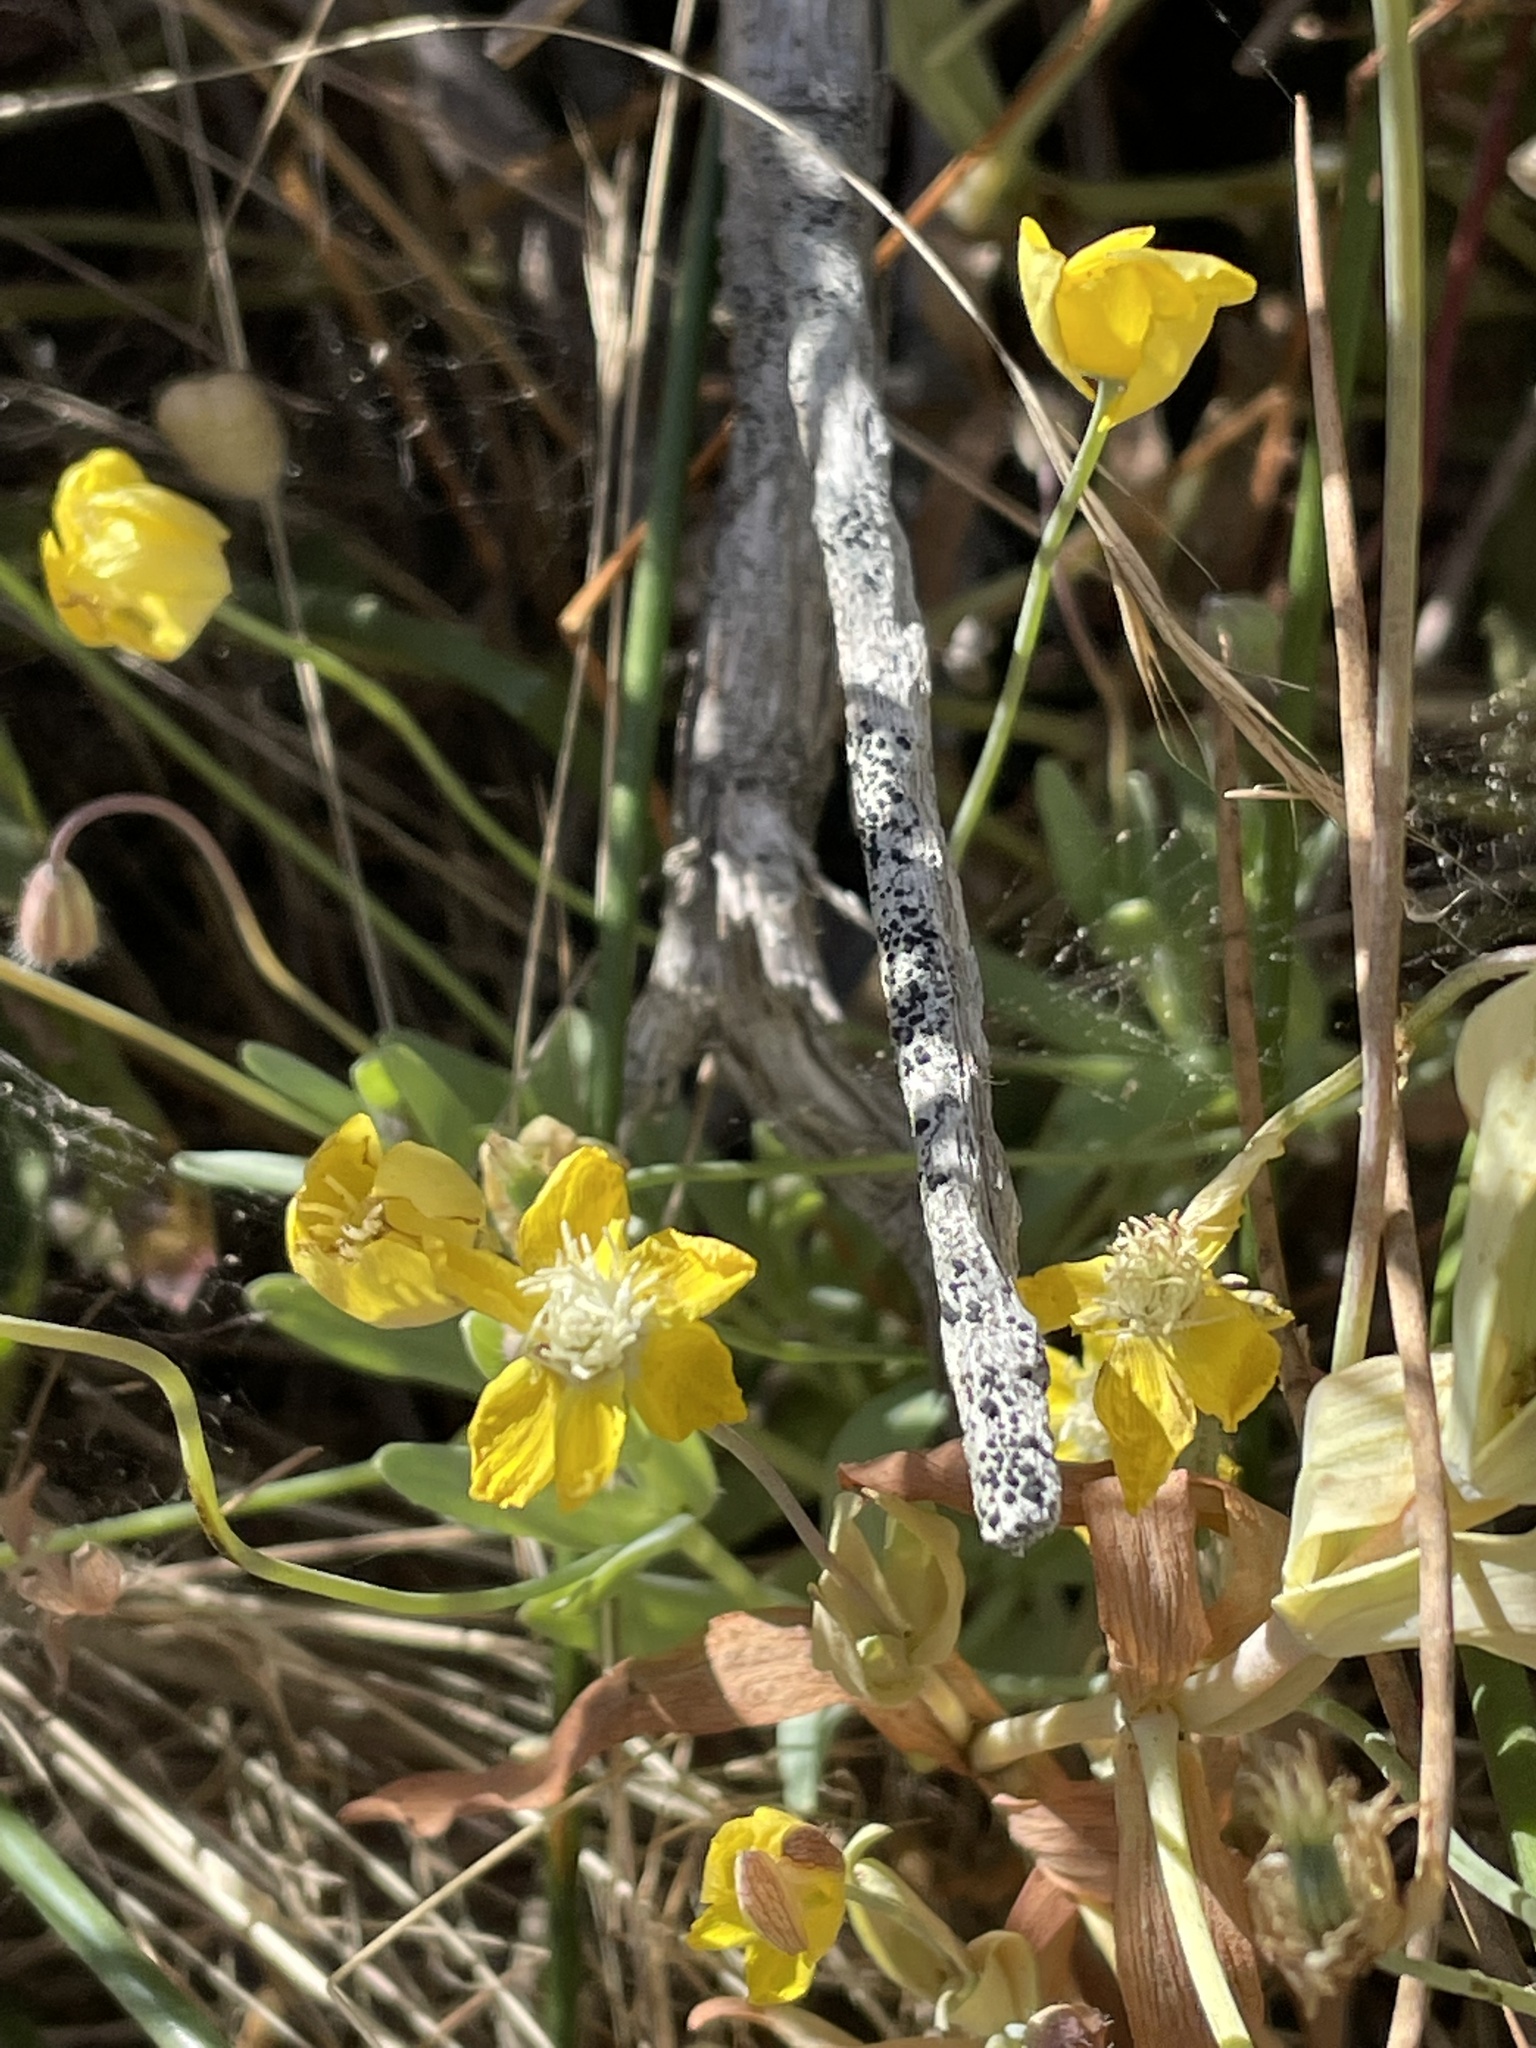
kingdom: Plantae
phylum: Tracheophyta
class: Magnoliopsida
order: Ranunculales
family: Papaveraceae
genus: Platystemon
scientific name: Platystemon californicus
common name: Cream-cups
